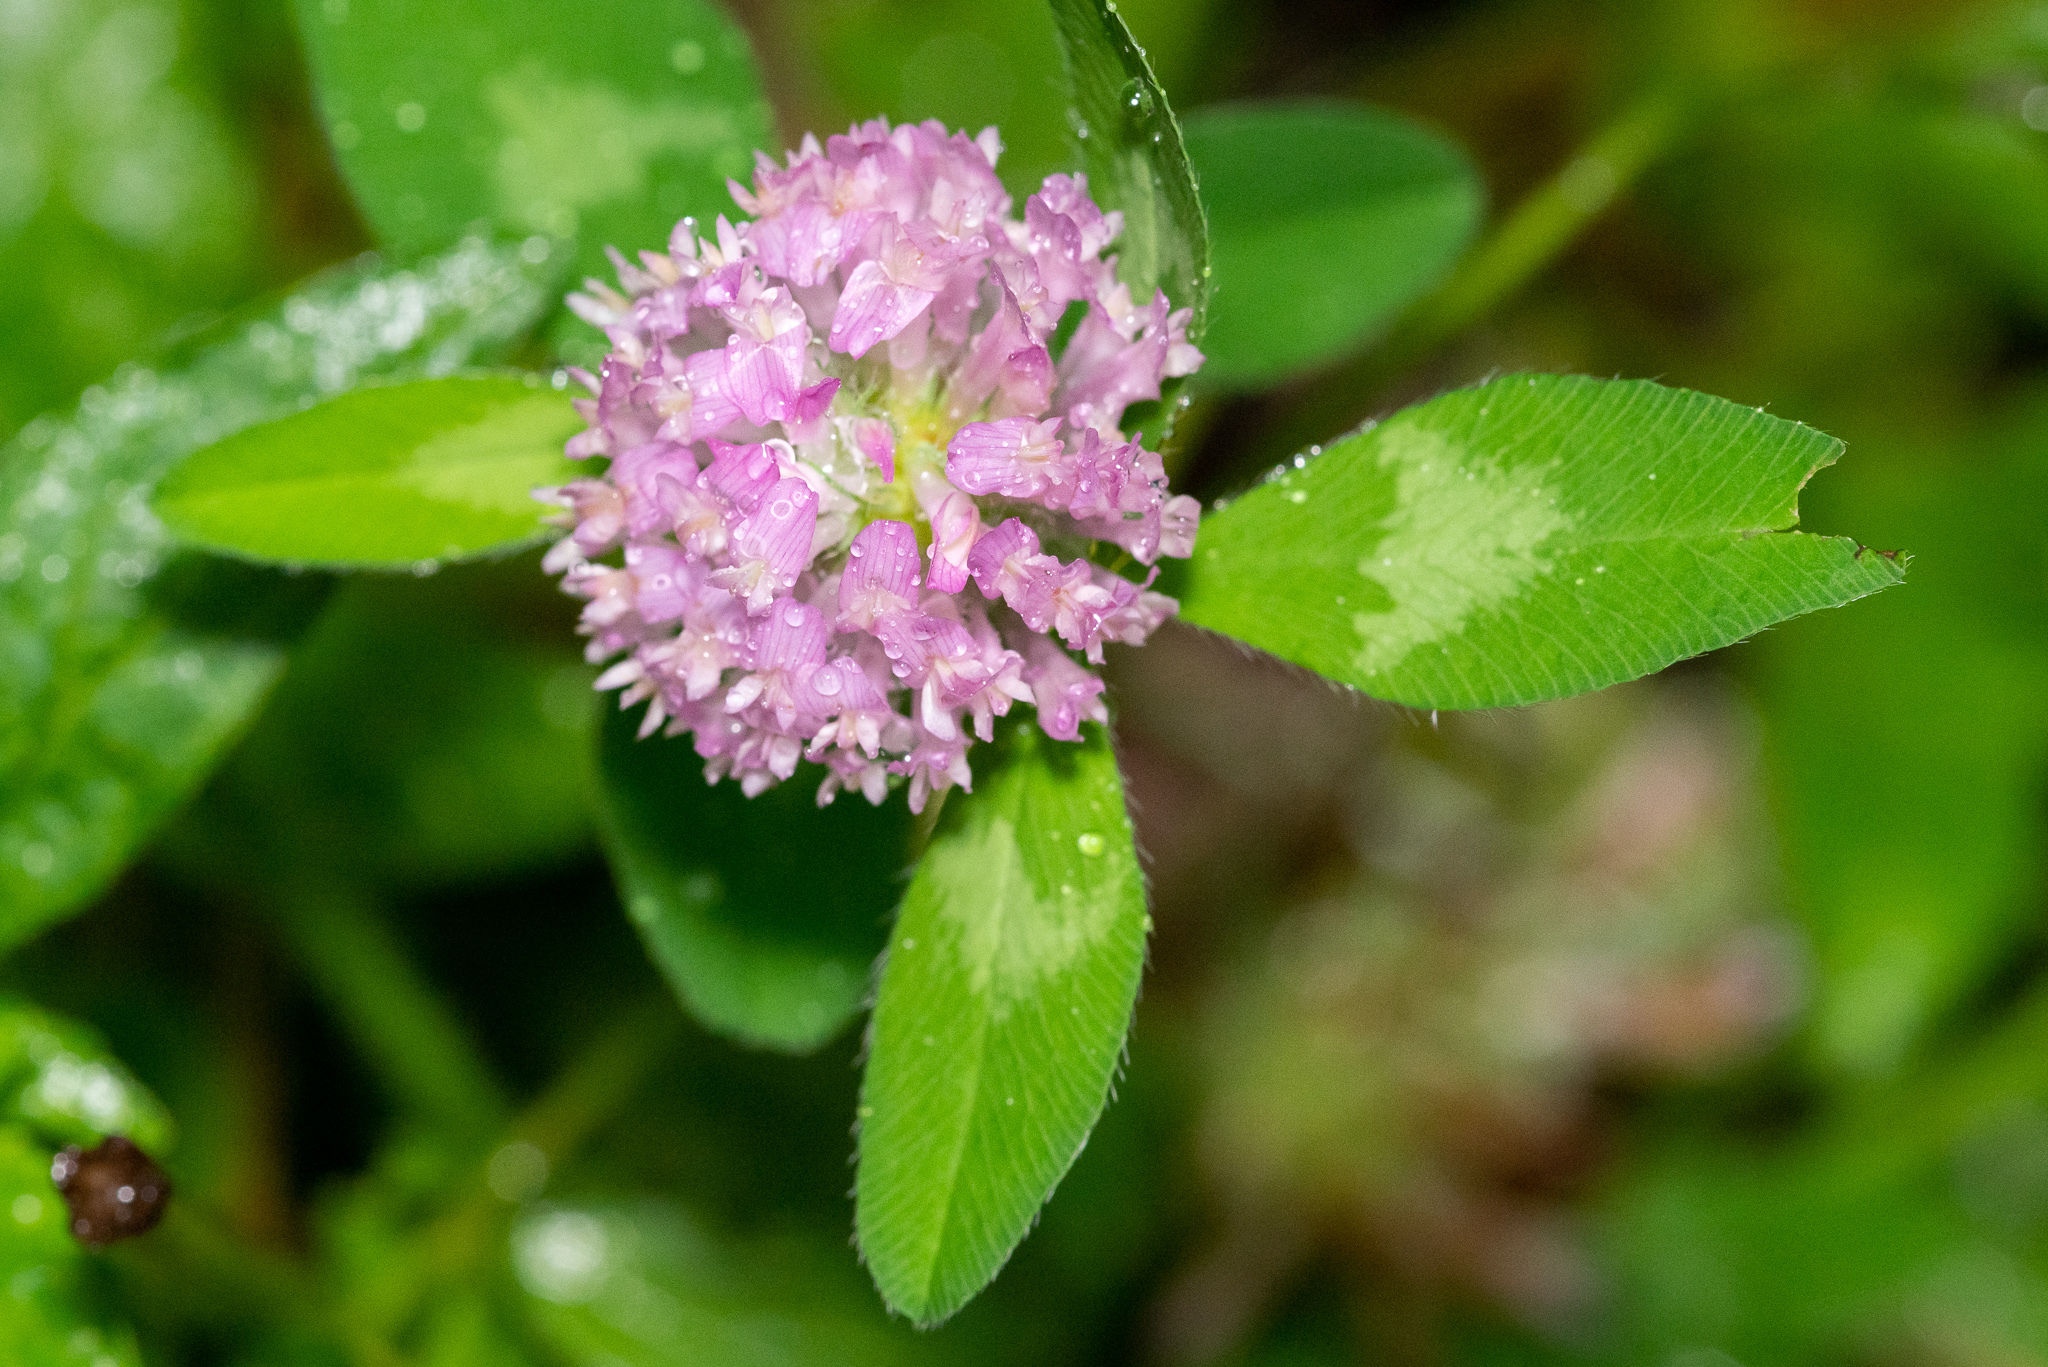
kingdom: Plantae
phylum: Tracheophyta
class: Magnoliopsida
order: Fabales
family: Fabaceae
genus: Trifolium
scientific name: Trifolium pratense
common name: Red clover
